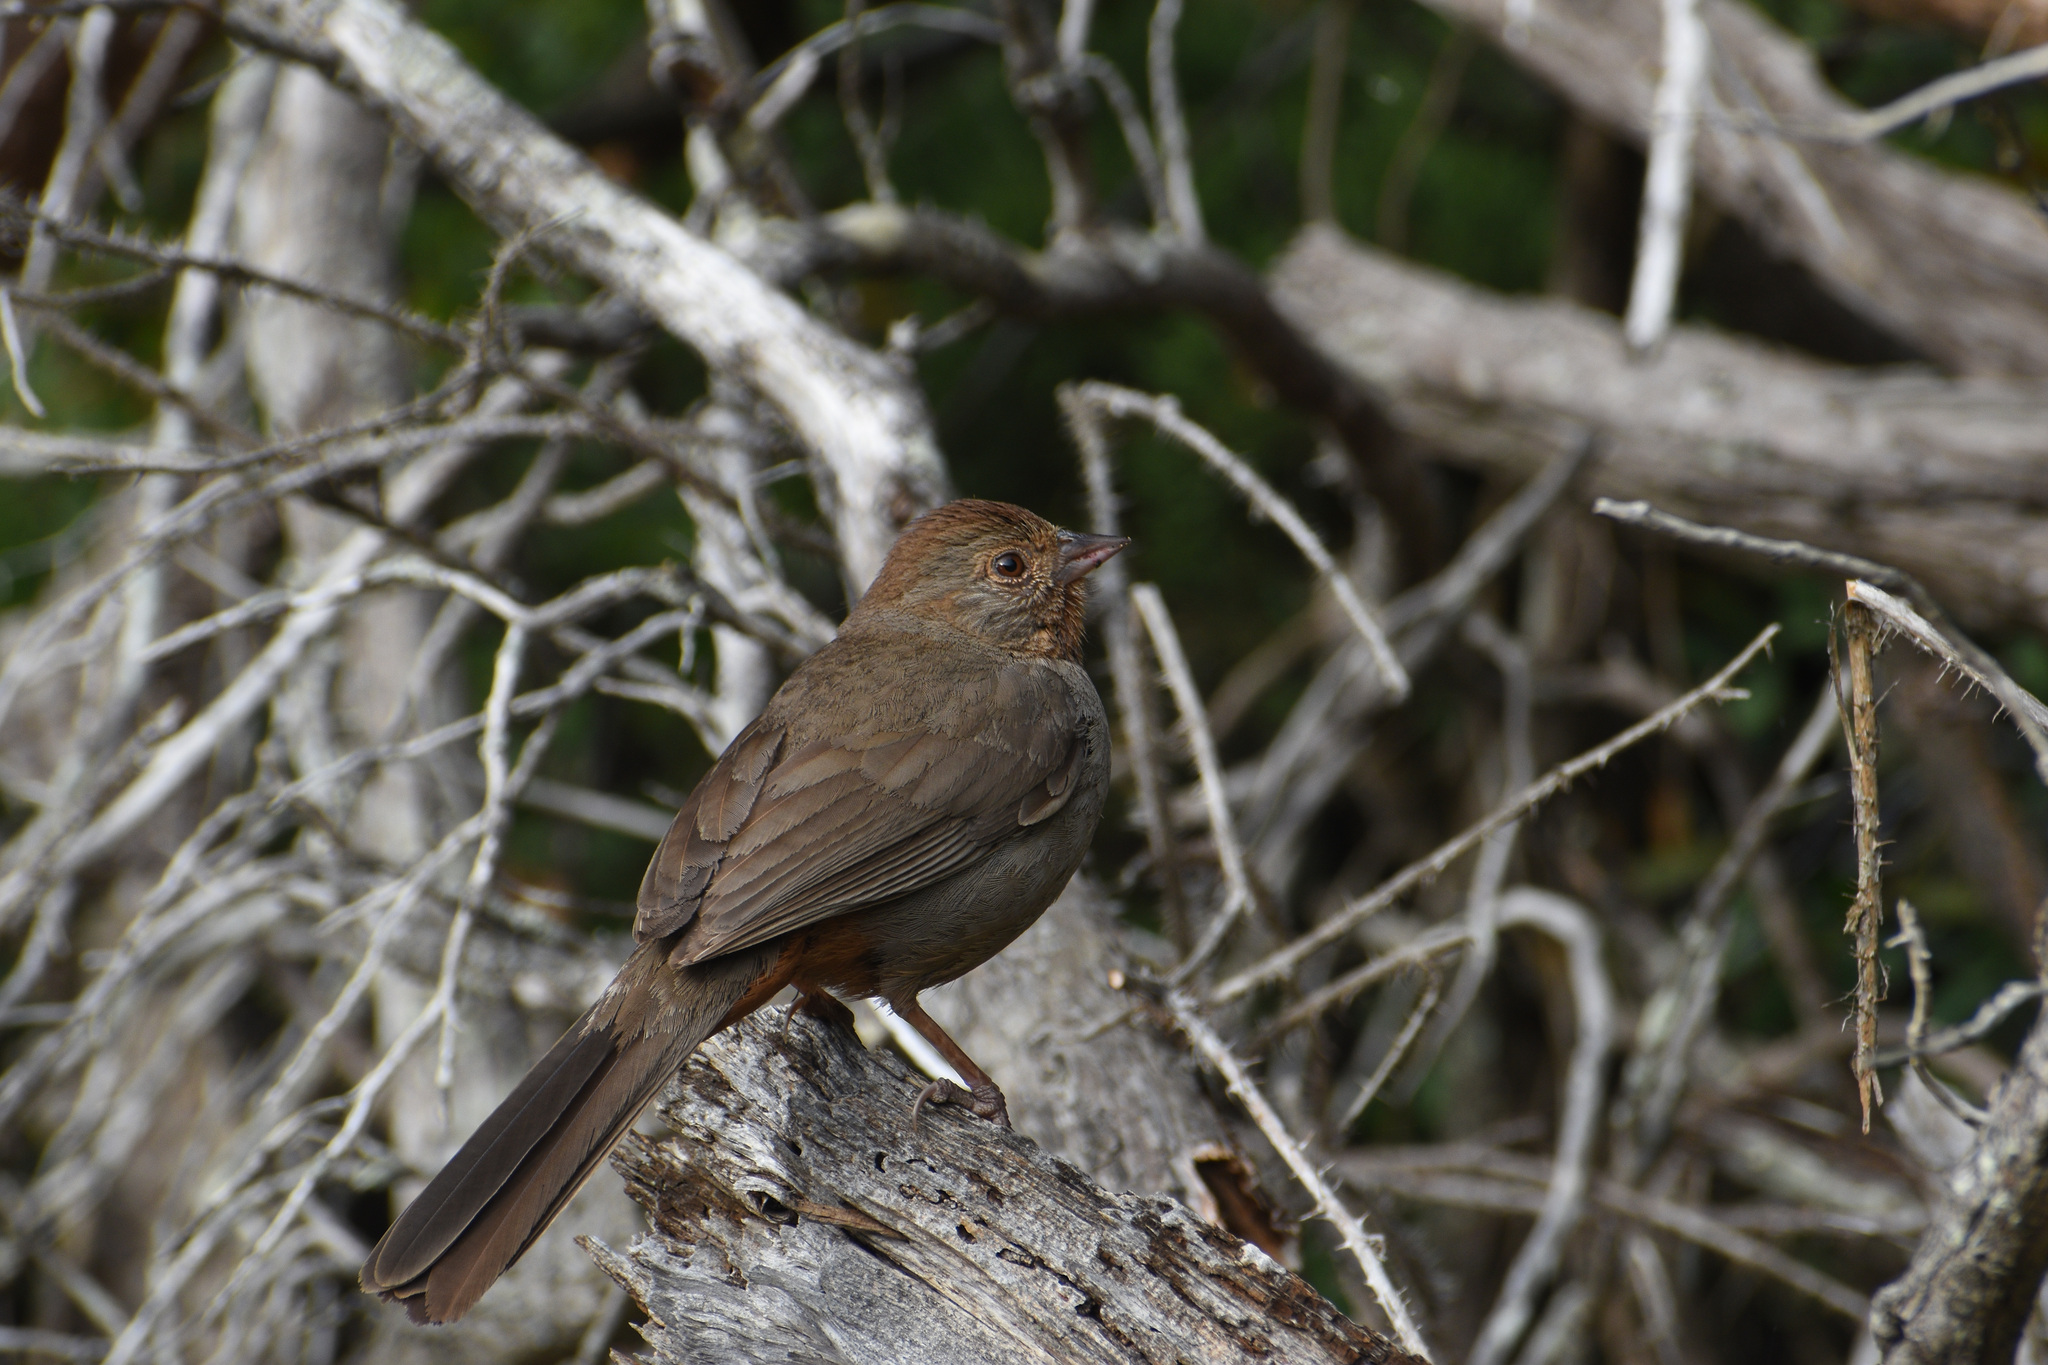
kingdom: Animalia
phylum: Chordata
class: Aves
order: Passeriformes
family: Passerellidae
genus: Melozone
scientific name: Melozone crissalis
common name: California towhee
